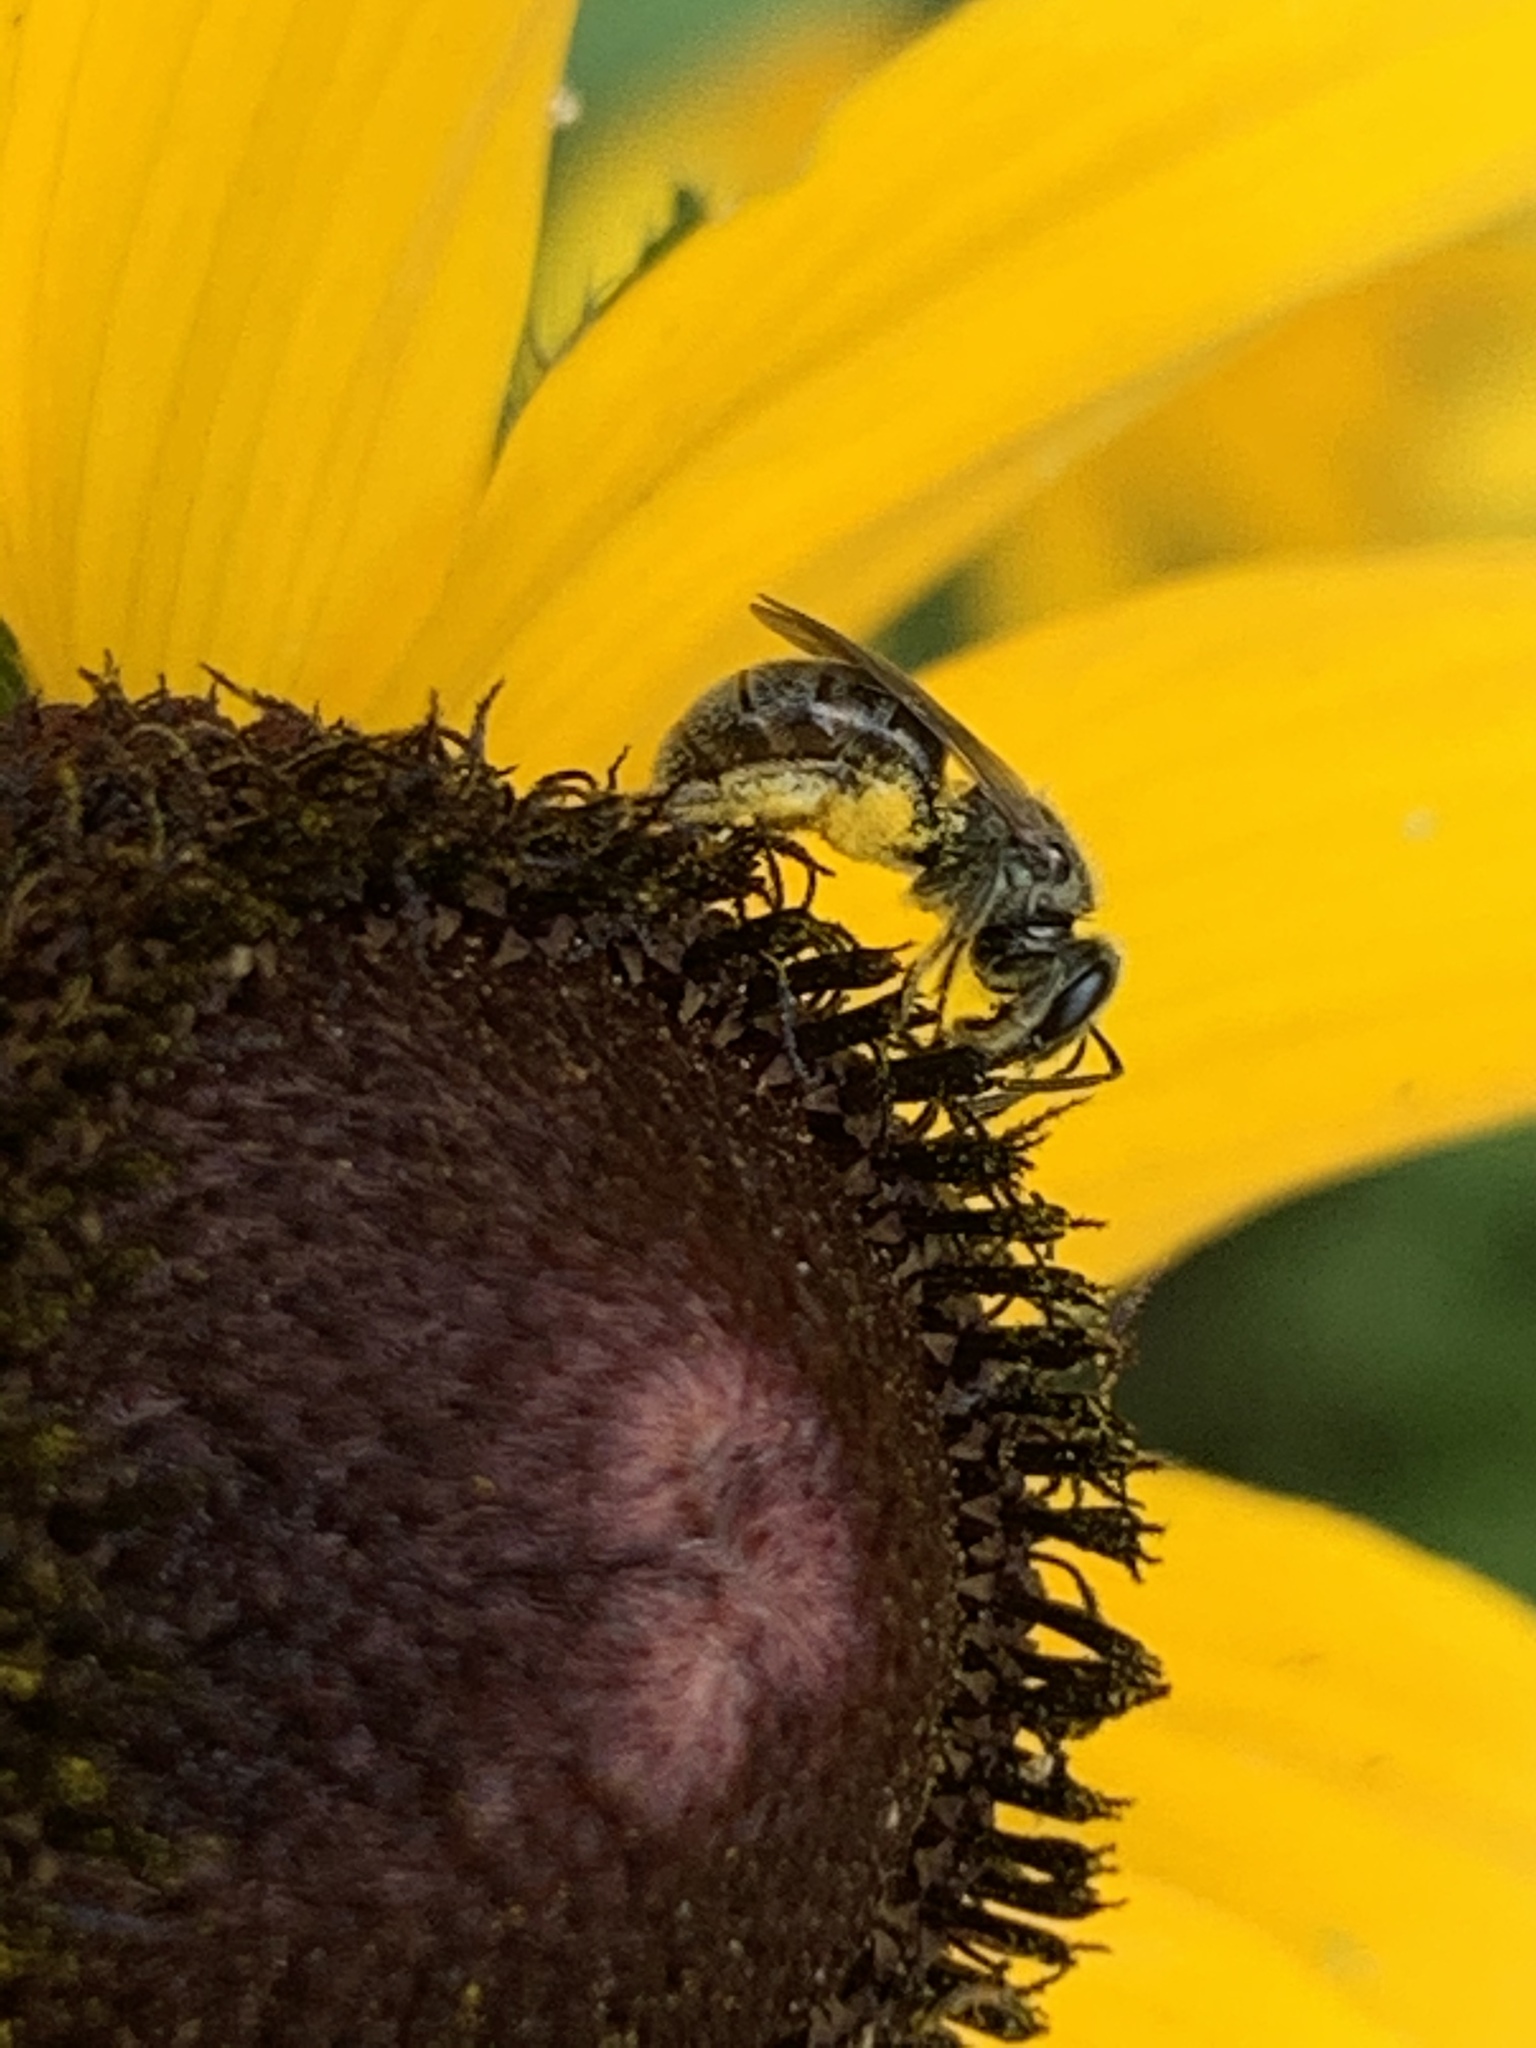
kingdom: Animalia
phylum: Arthropoda
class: Insecta
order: Hymenoptera
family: Halictidae
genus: Dialictus
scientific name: Dialictus
